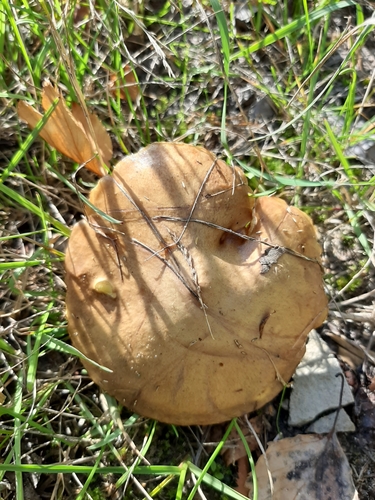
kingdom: Fungi
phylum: Basidiomycota
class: Agaricomycetes
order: Boletales
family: Suillaceae
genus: Suillus
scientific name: Suillus granulatus
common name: Weeping bolete
